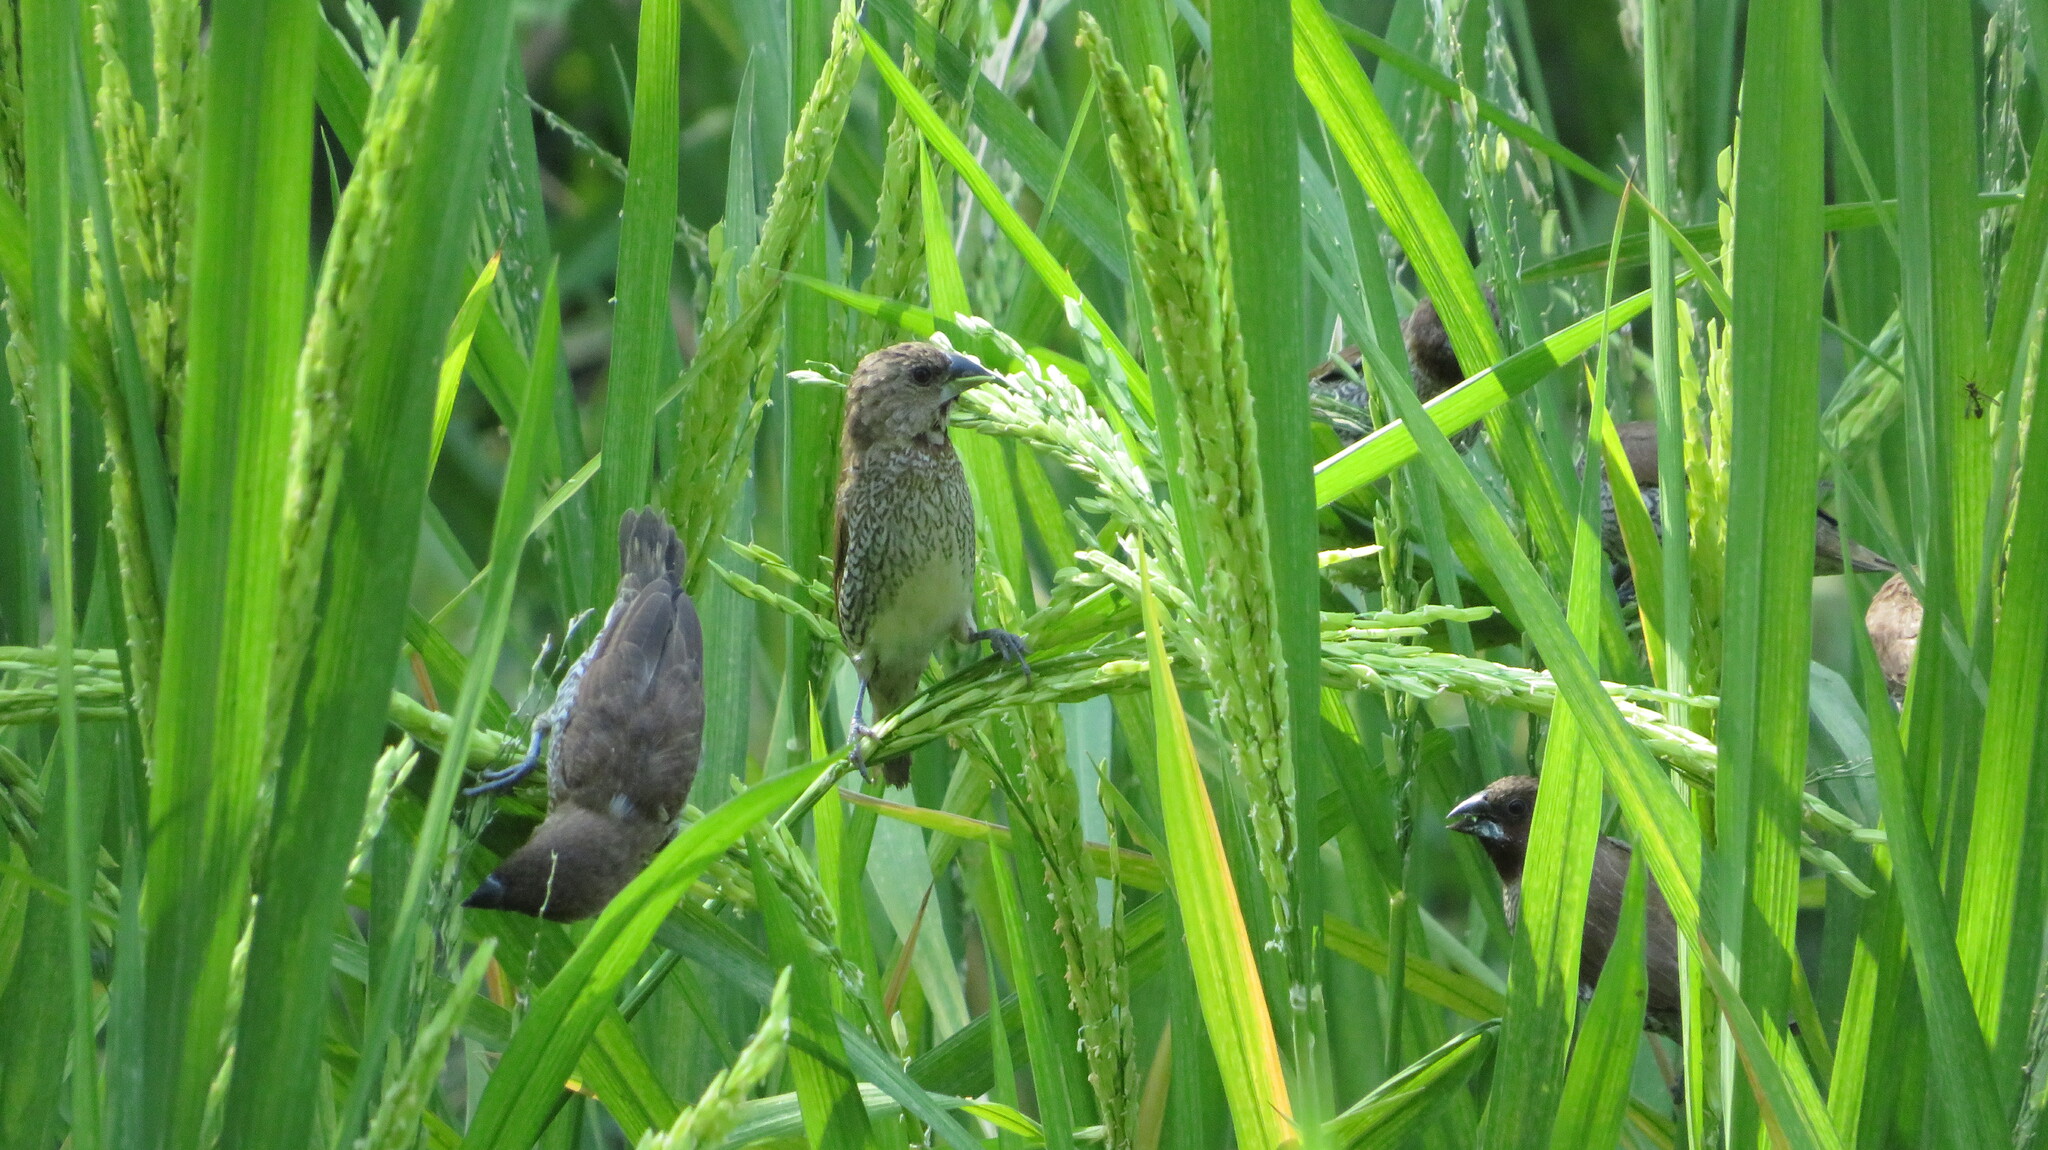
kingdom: Animalia
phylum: Chordata
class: Aves
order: Passeriformes
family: Estrildidae
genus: Lonchura
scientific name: Lonchura punctulata
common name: Scaly-breasted munia
